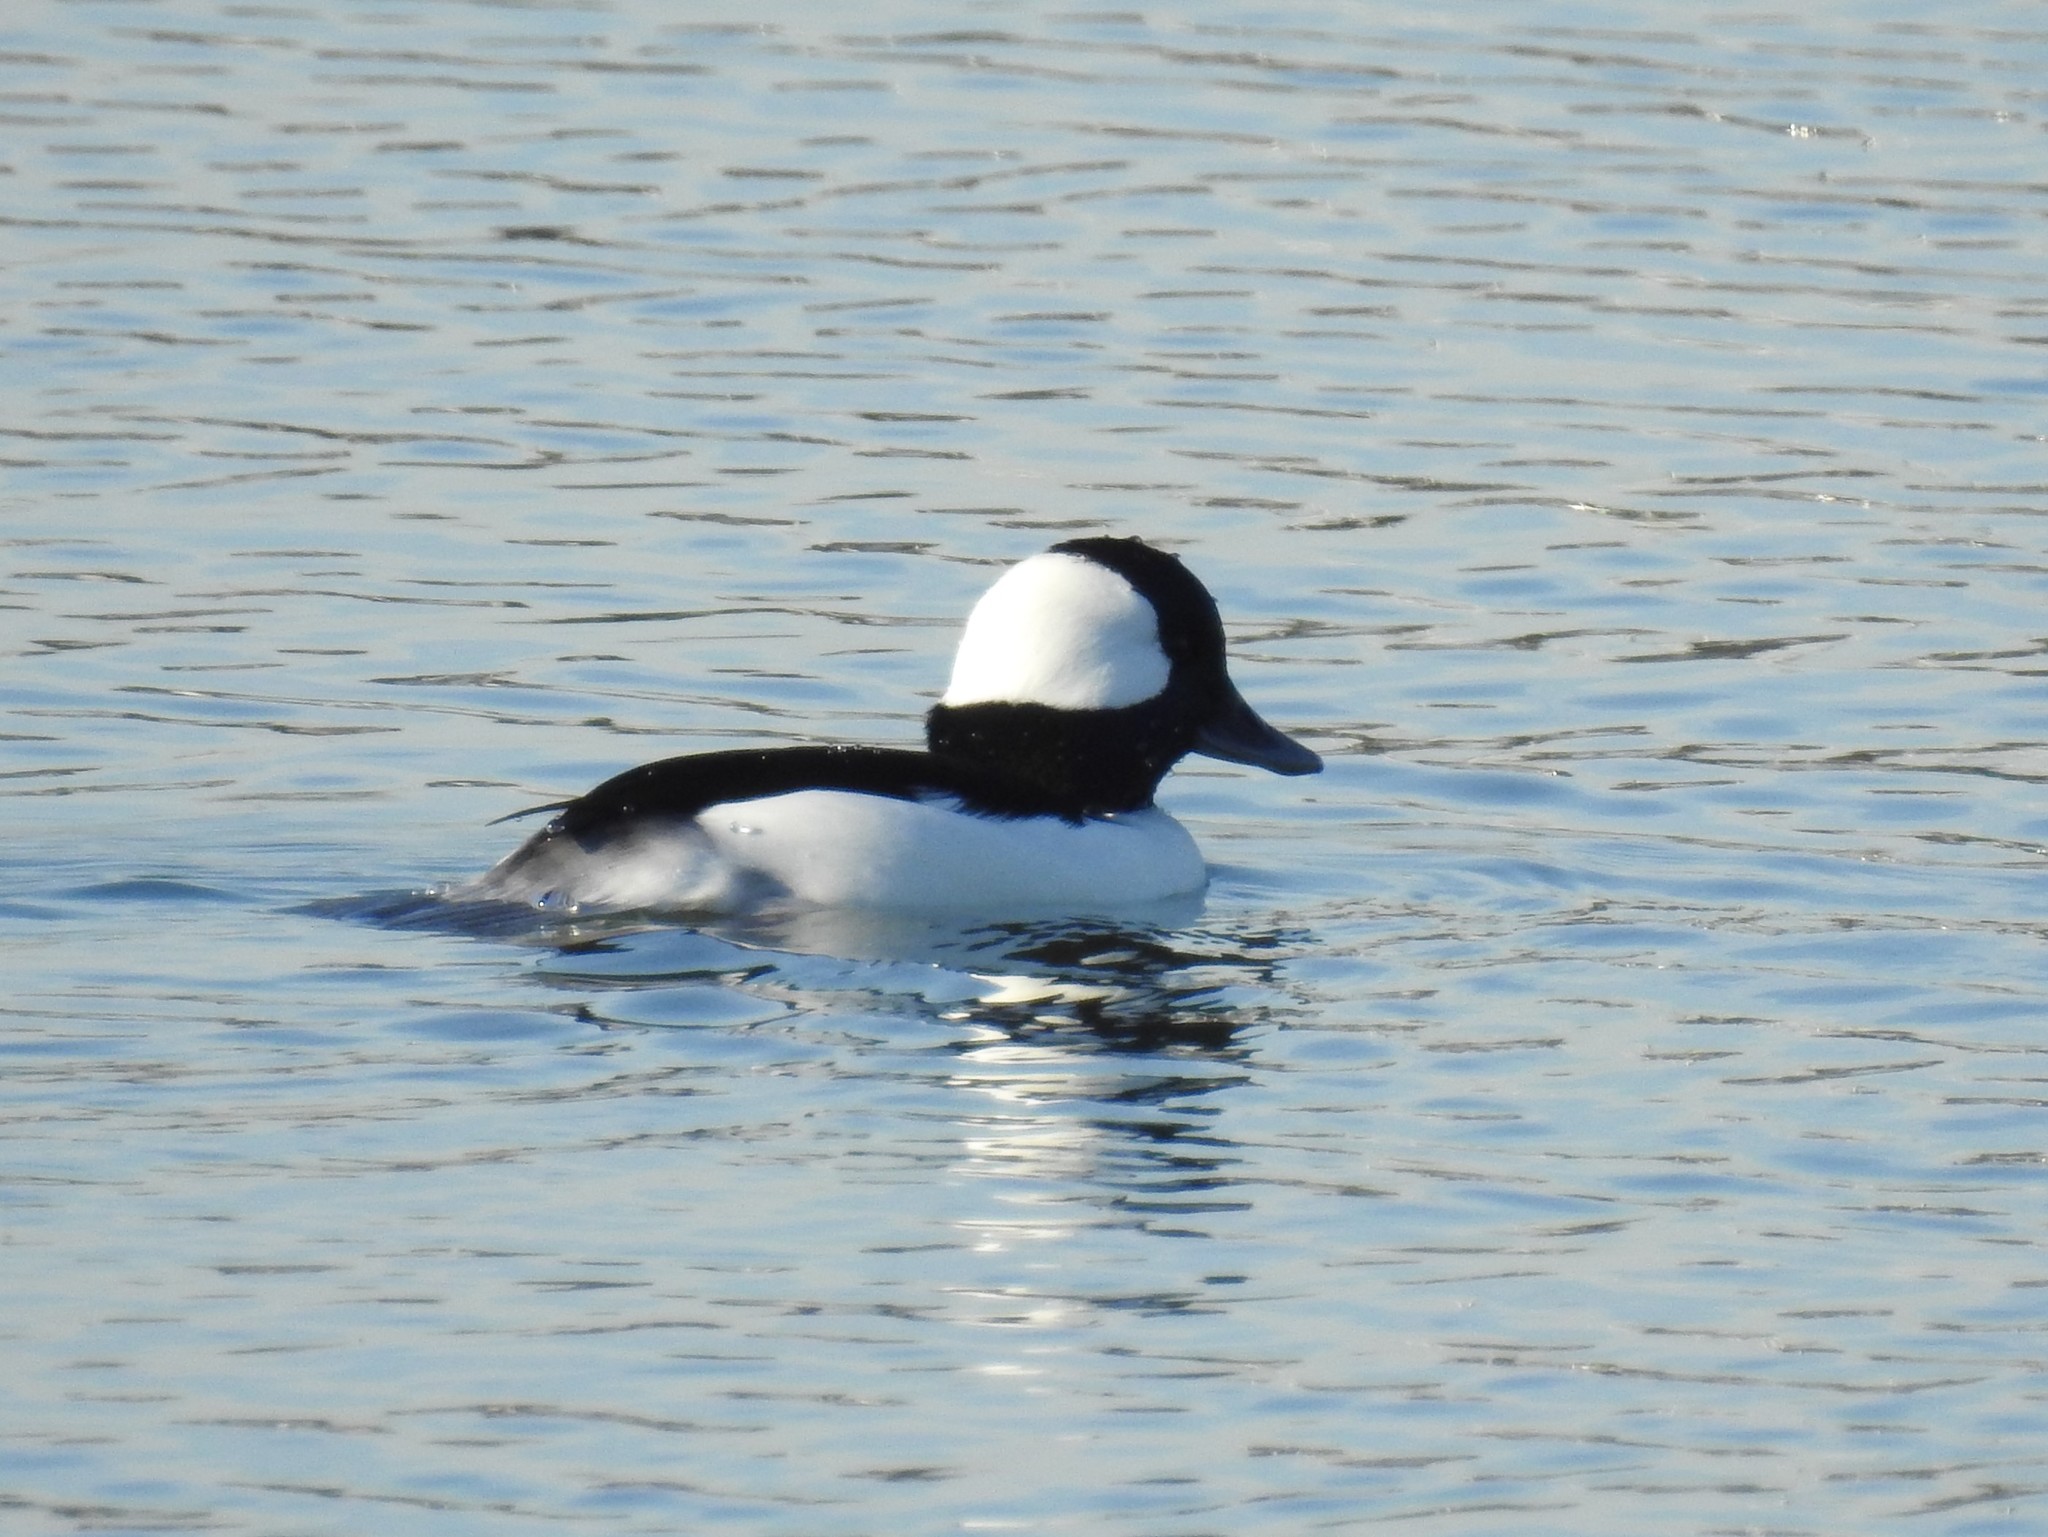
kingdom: Animalia
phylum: Chordata
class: Aves
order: Anseriformes
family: Anatidae
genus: Bucephala
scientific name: Bucephala albeola
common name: Bufflehead
